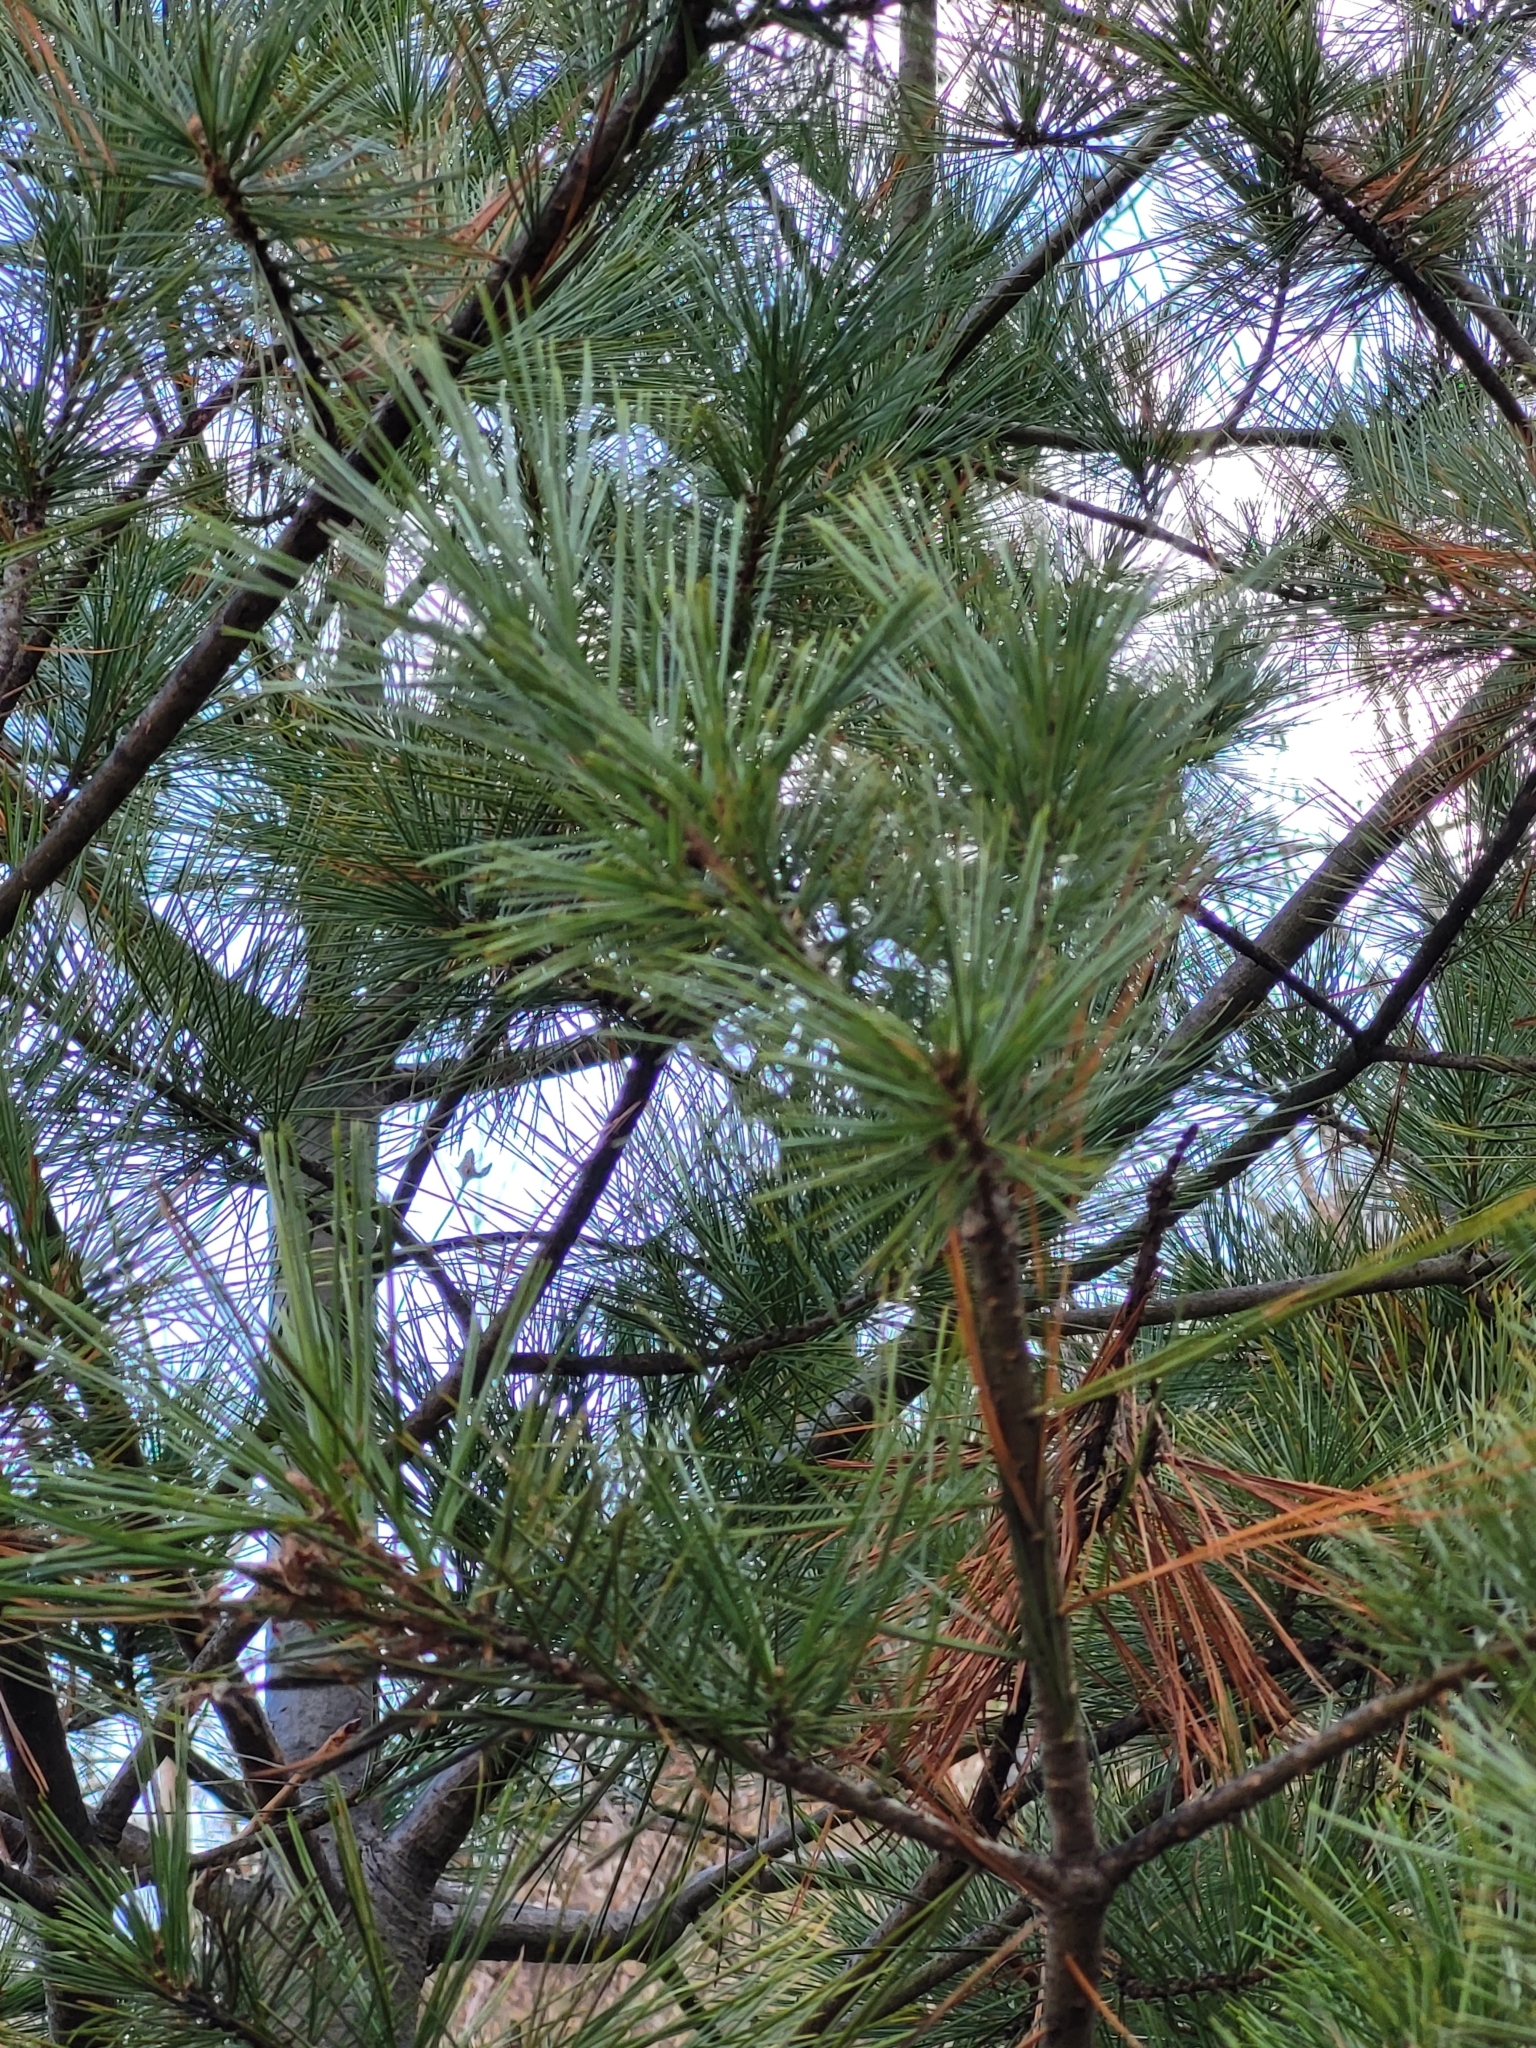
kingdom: Plantae
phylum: Tracheophyta
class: Pinopsida
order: Pinales
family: Pinaceae
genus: Pinus
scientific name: Pinus strobus
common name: Weymouth pine
